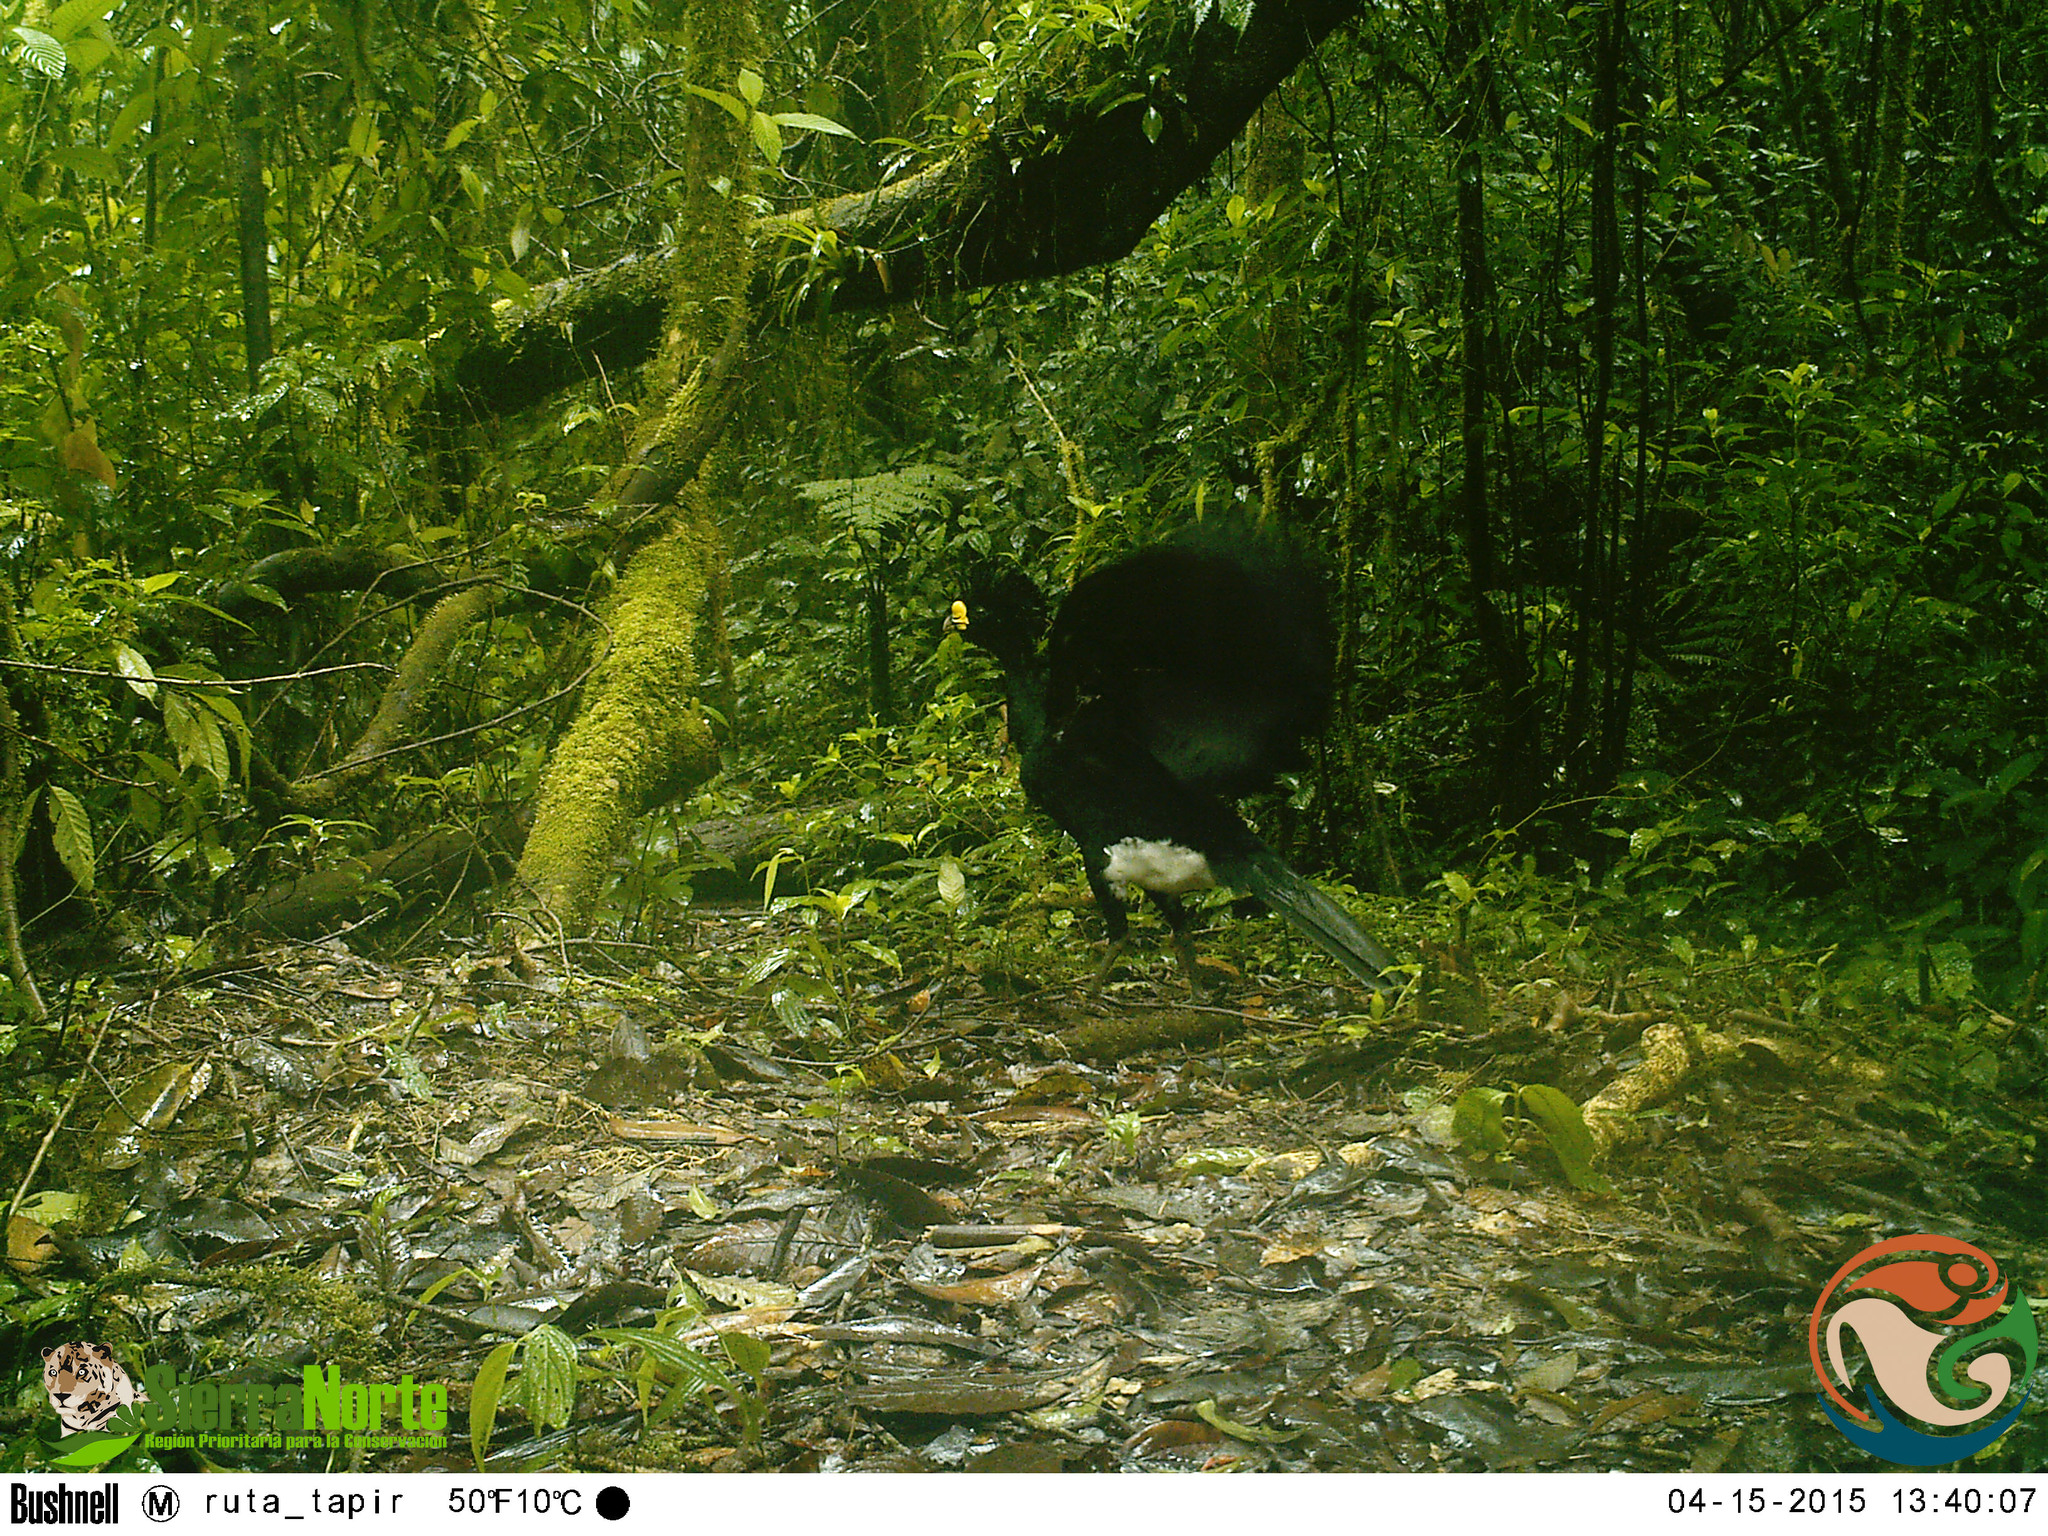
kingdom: Animalia
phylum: Chordata
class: Aves
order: Galliformes
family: Cracidae
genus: Crax
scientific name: Crax rubra
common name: Great curassow
